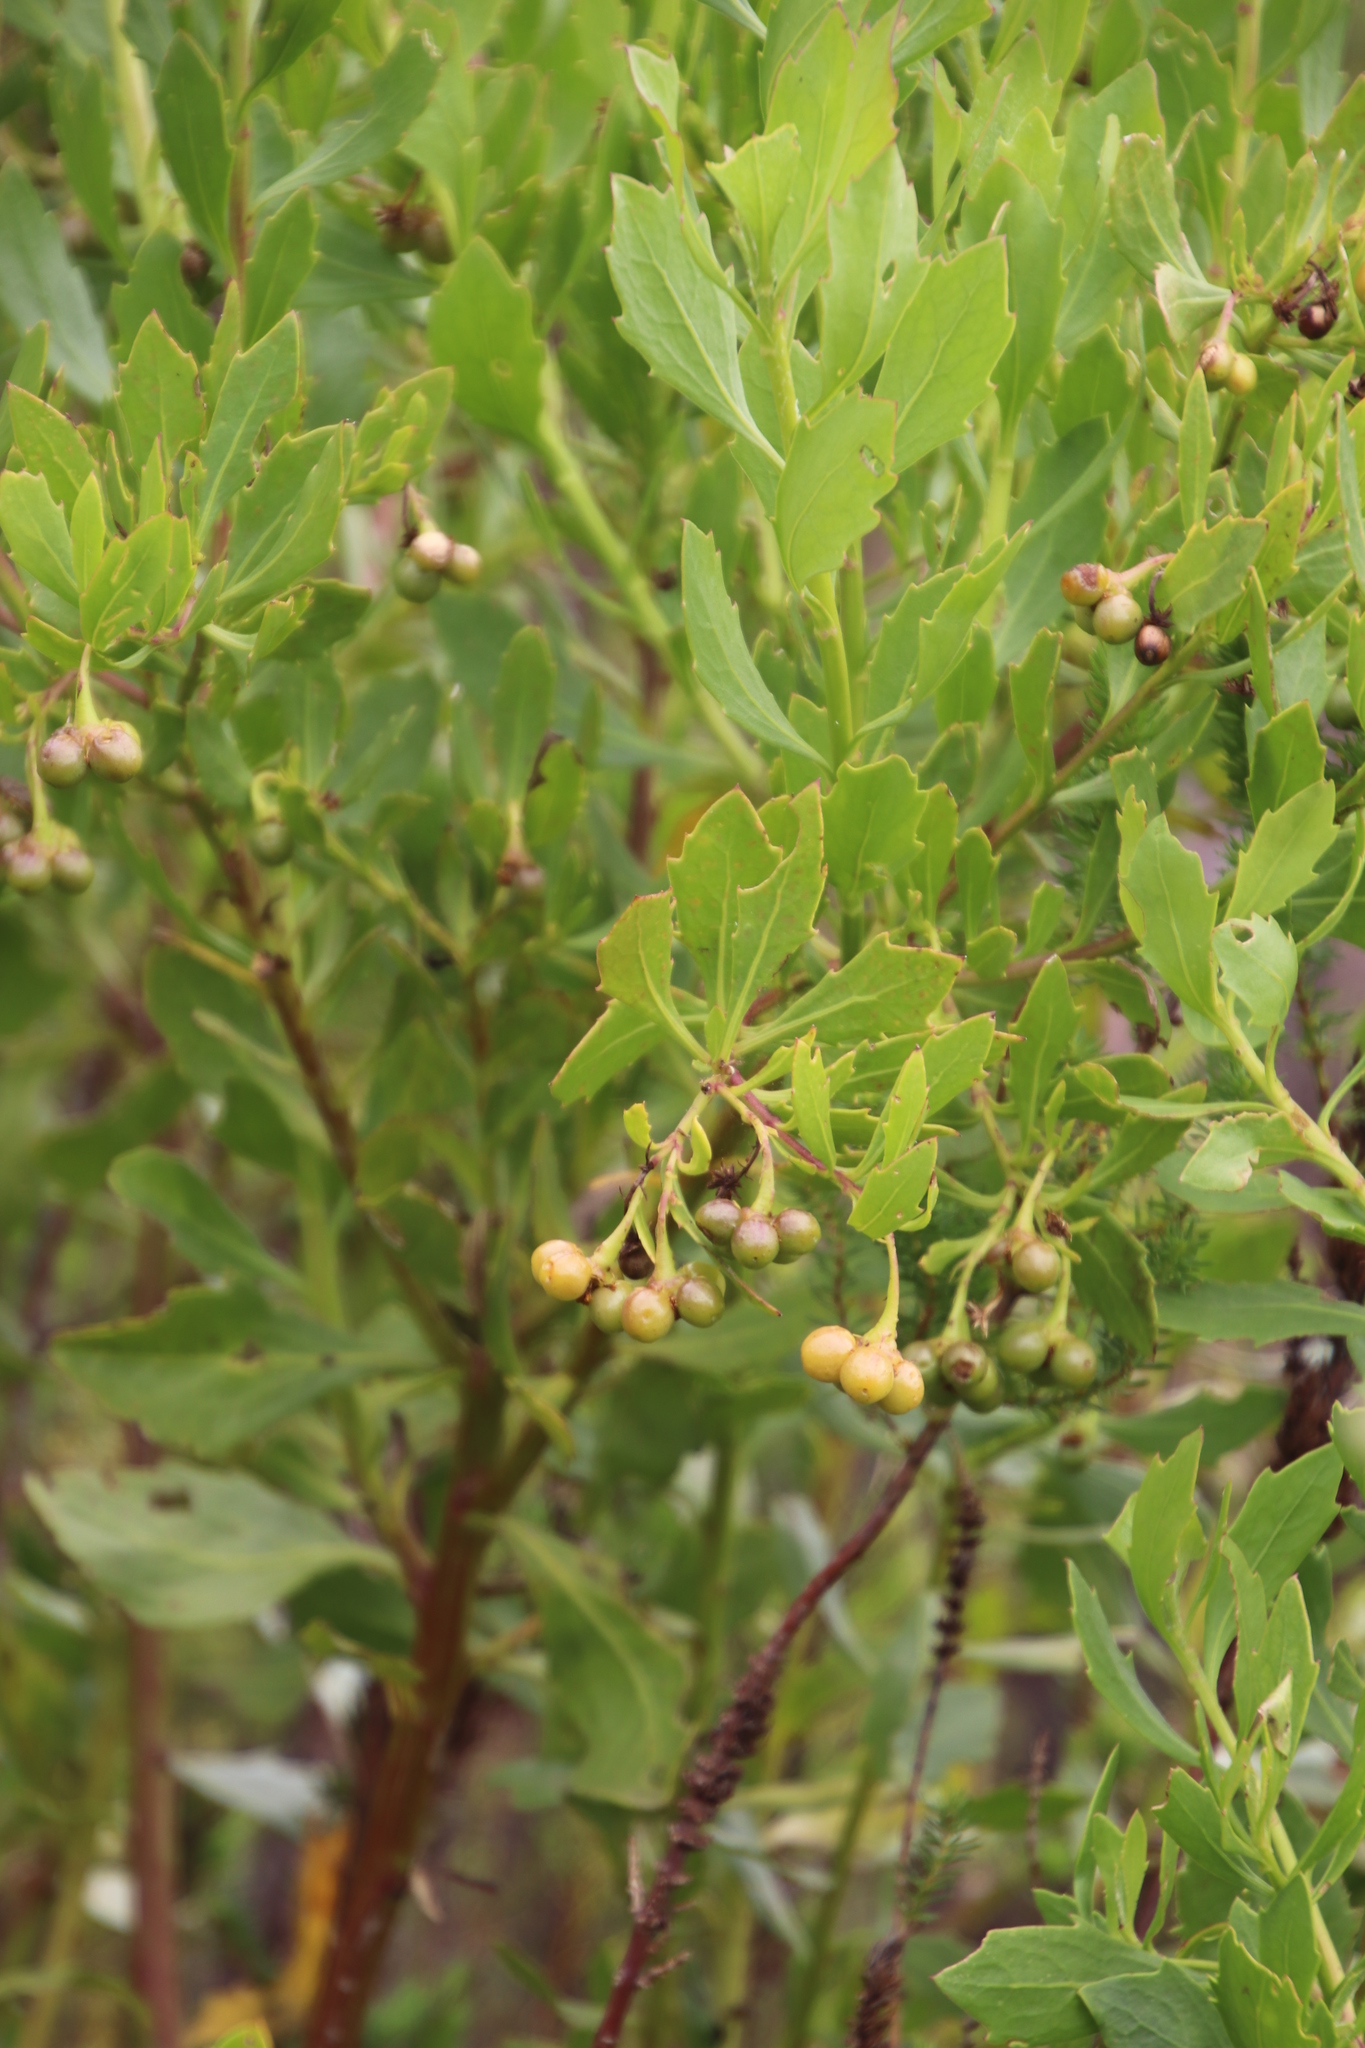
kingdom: Plantae
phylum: Tracheophyta
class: Magnoliopsida
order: Asterales
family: Asteraceae
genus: Osteospermum
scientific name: Osteospermum moniliferum
